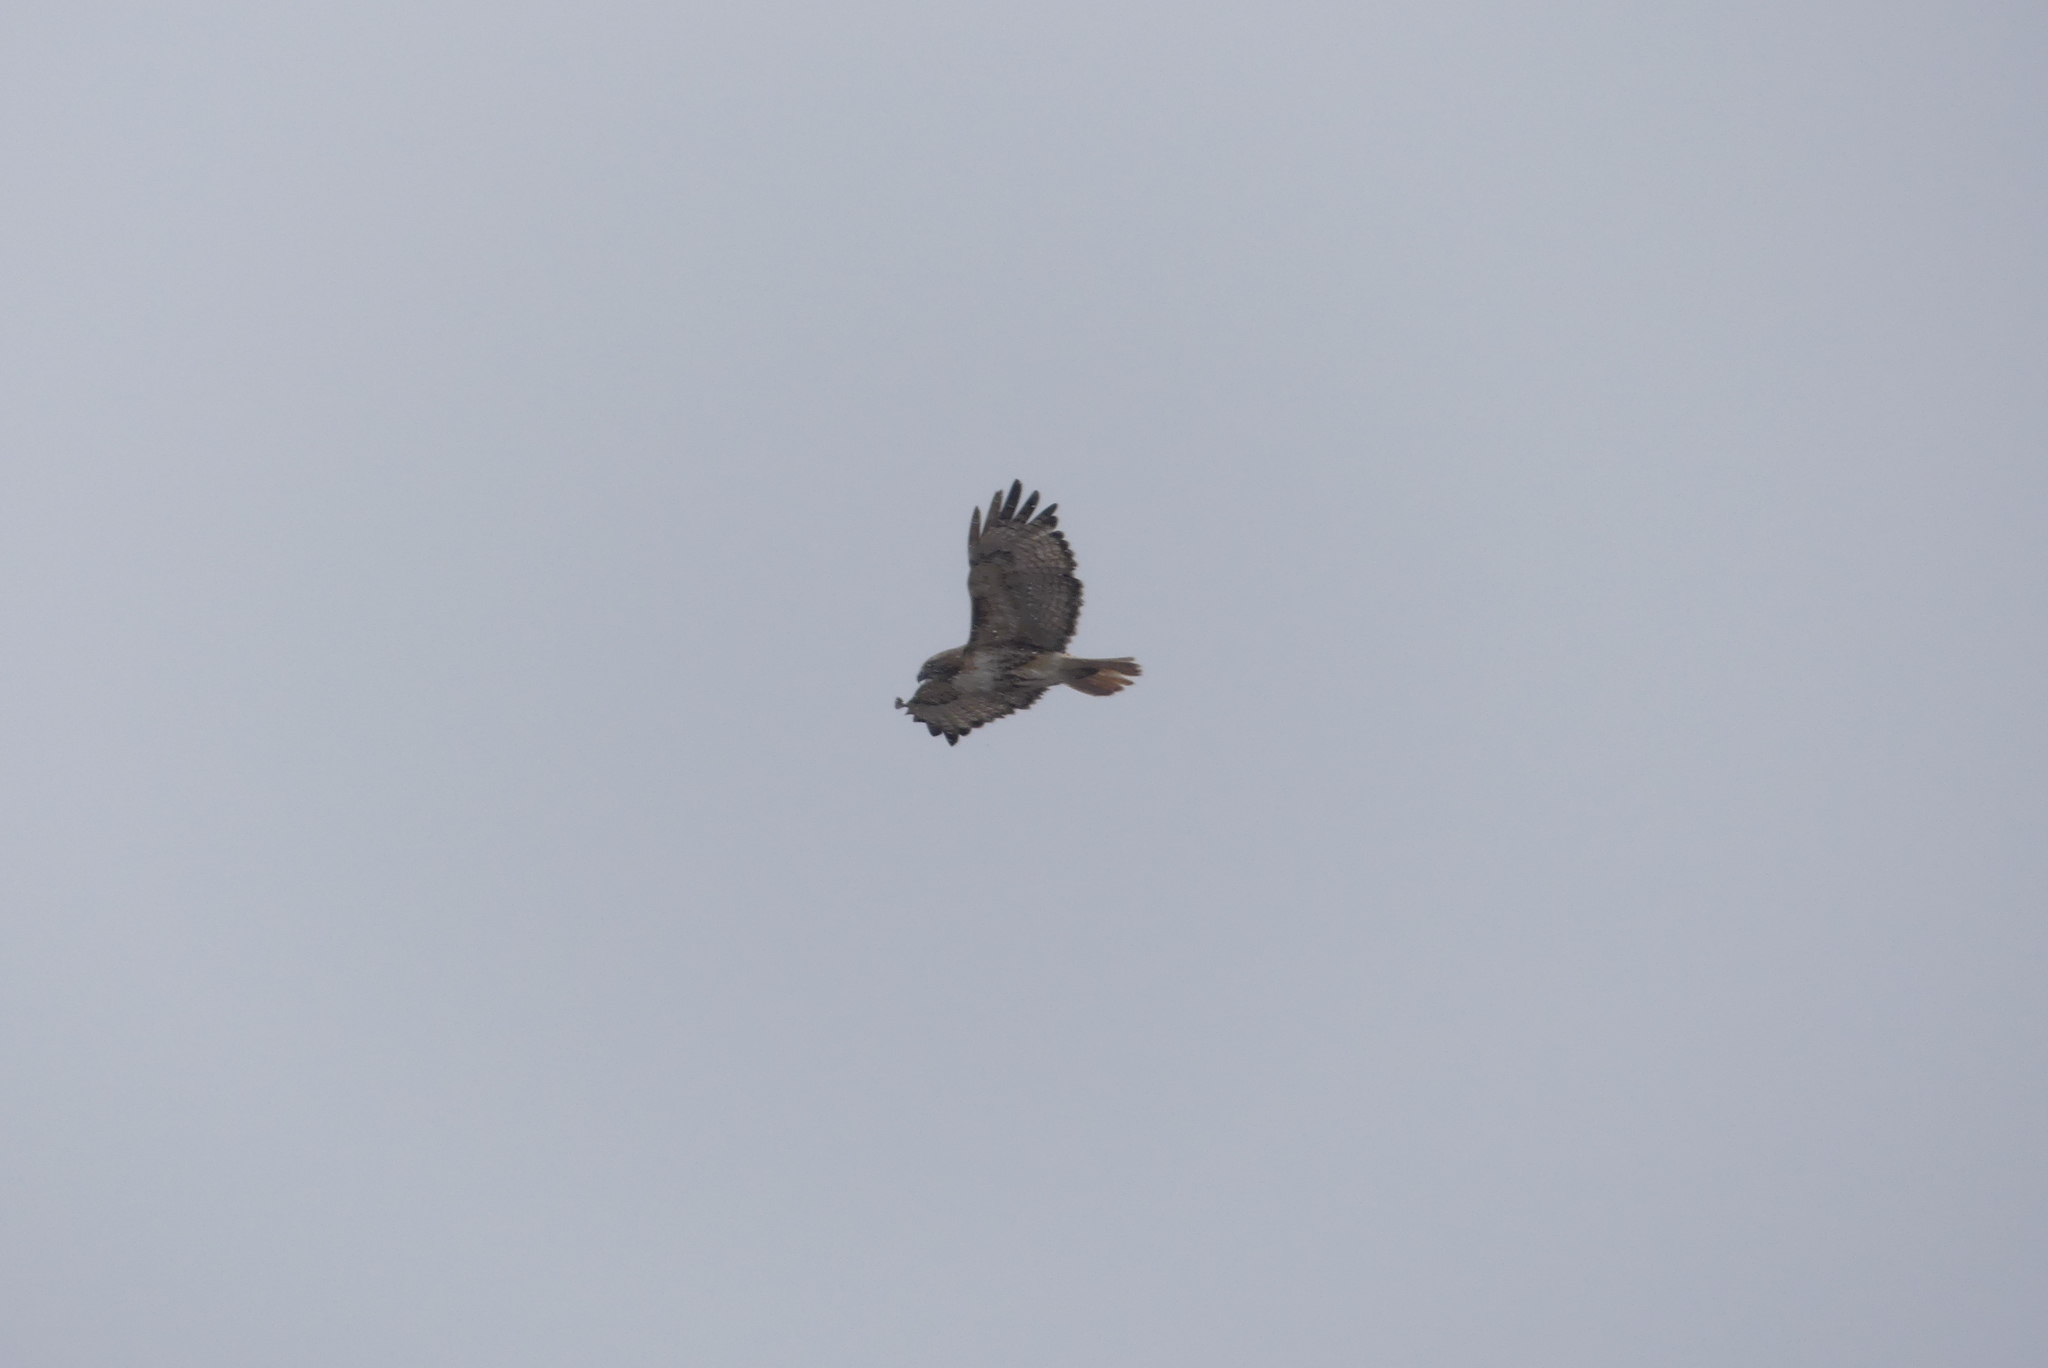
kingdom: Animalia
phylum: Chordata
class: Aves
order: Accipitriformes
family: Accipitridae
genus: Buteo
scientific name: Buteo jamaicensis
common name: Red-tailed hawk
